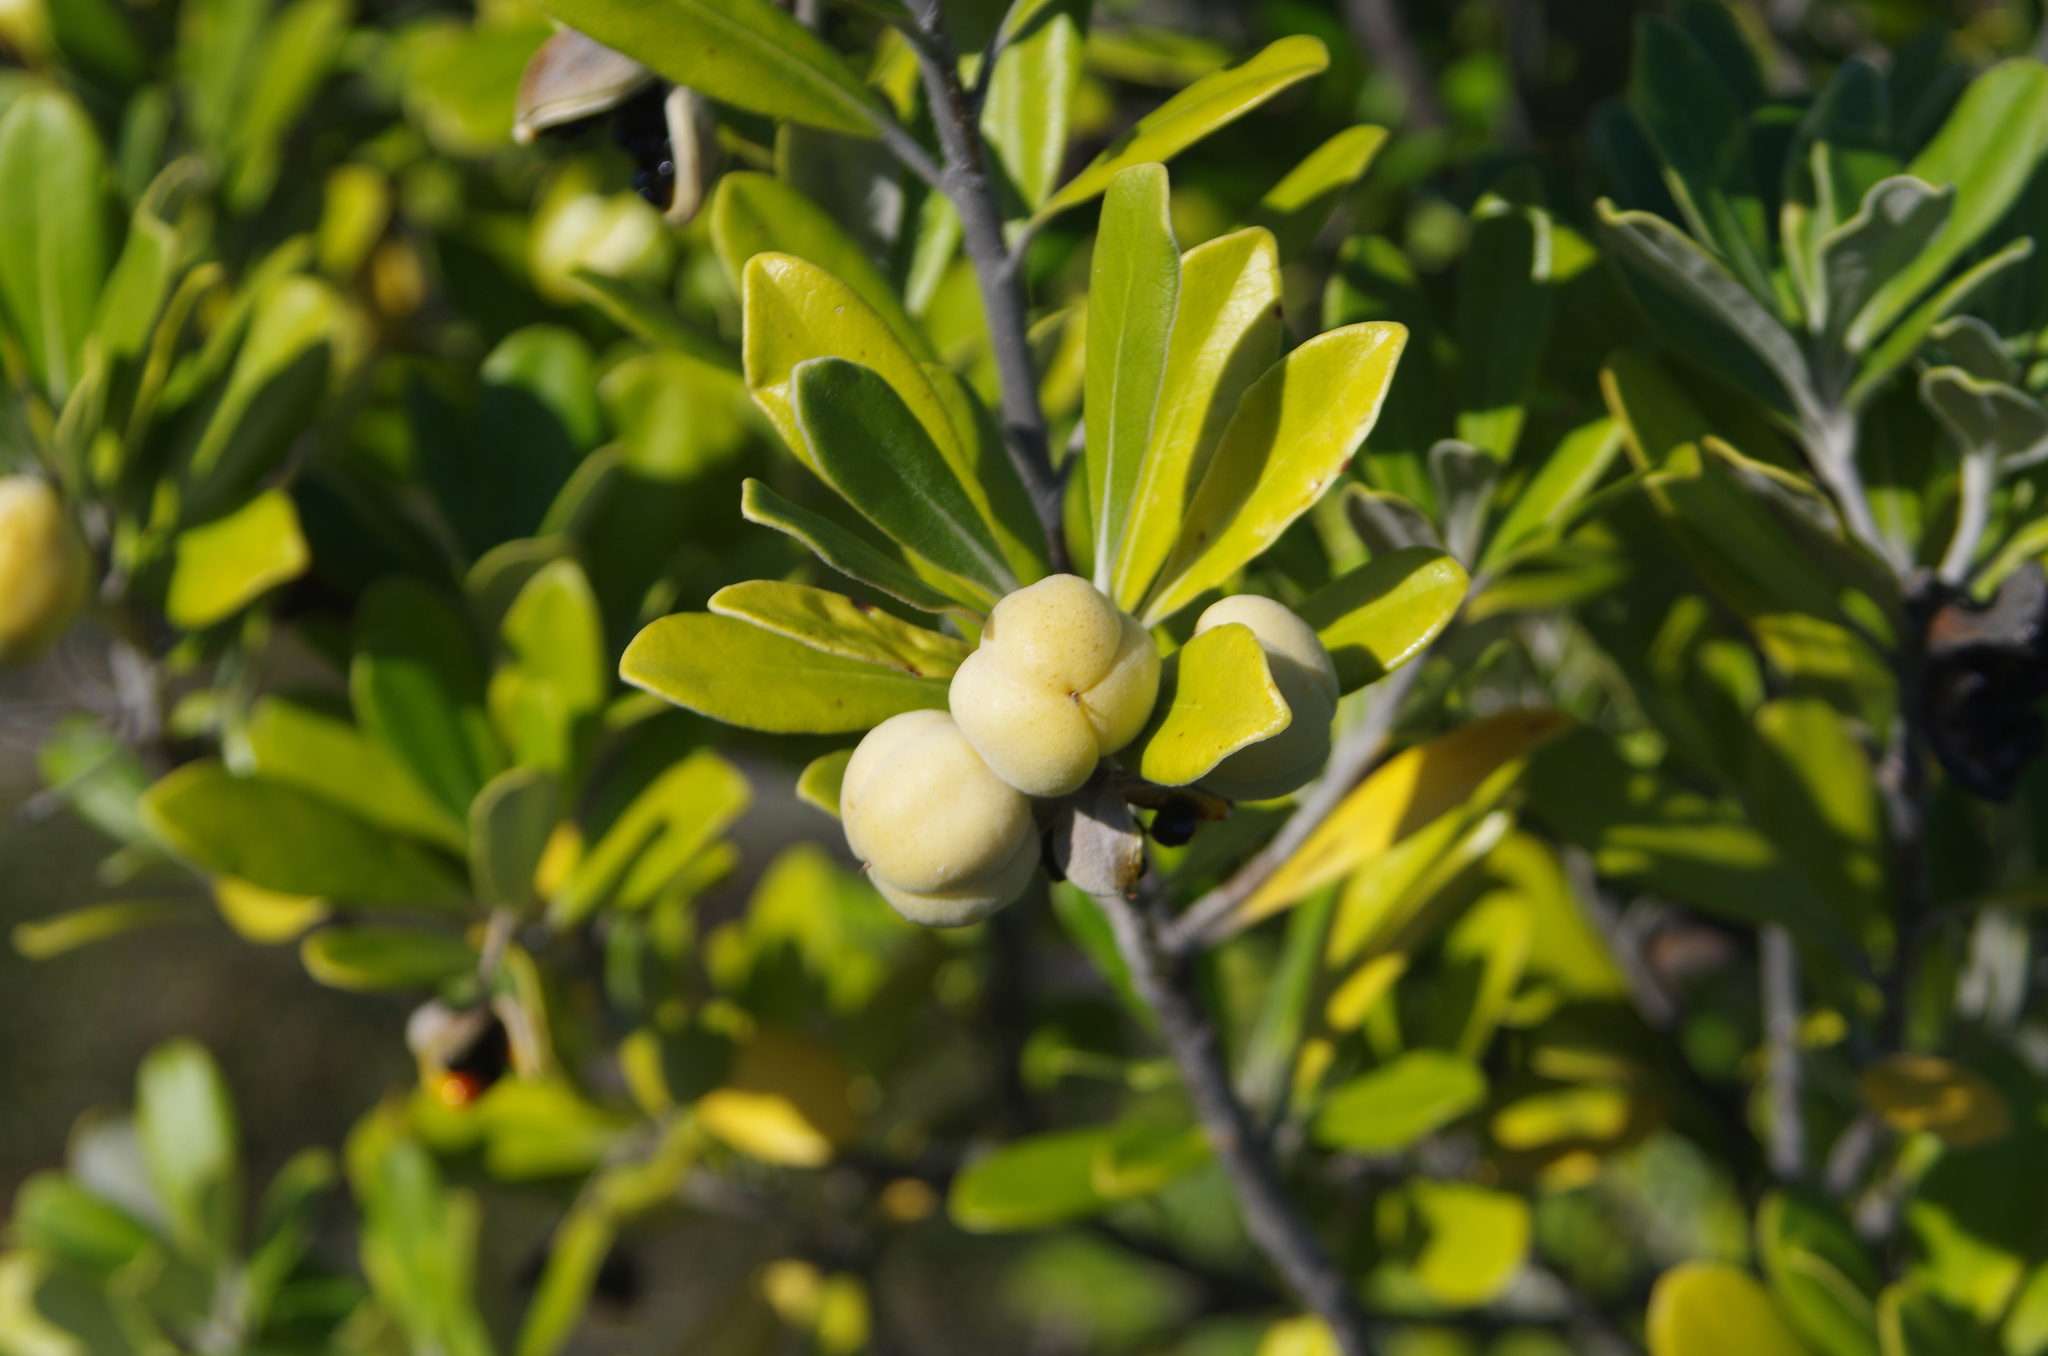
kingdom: Plantae
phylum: Tracheophyta
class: Magnoliopsida
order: Apiales
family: Pittosporaceae
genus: Pittosporum
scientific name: Pittosporum crassifolium
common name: Karo
